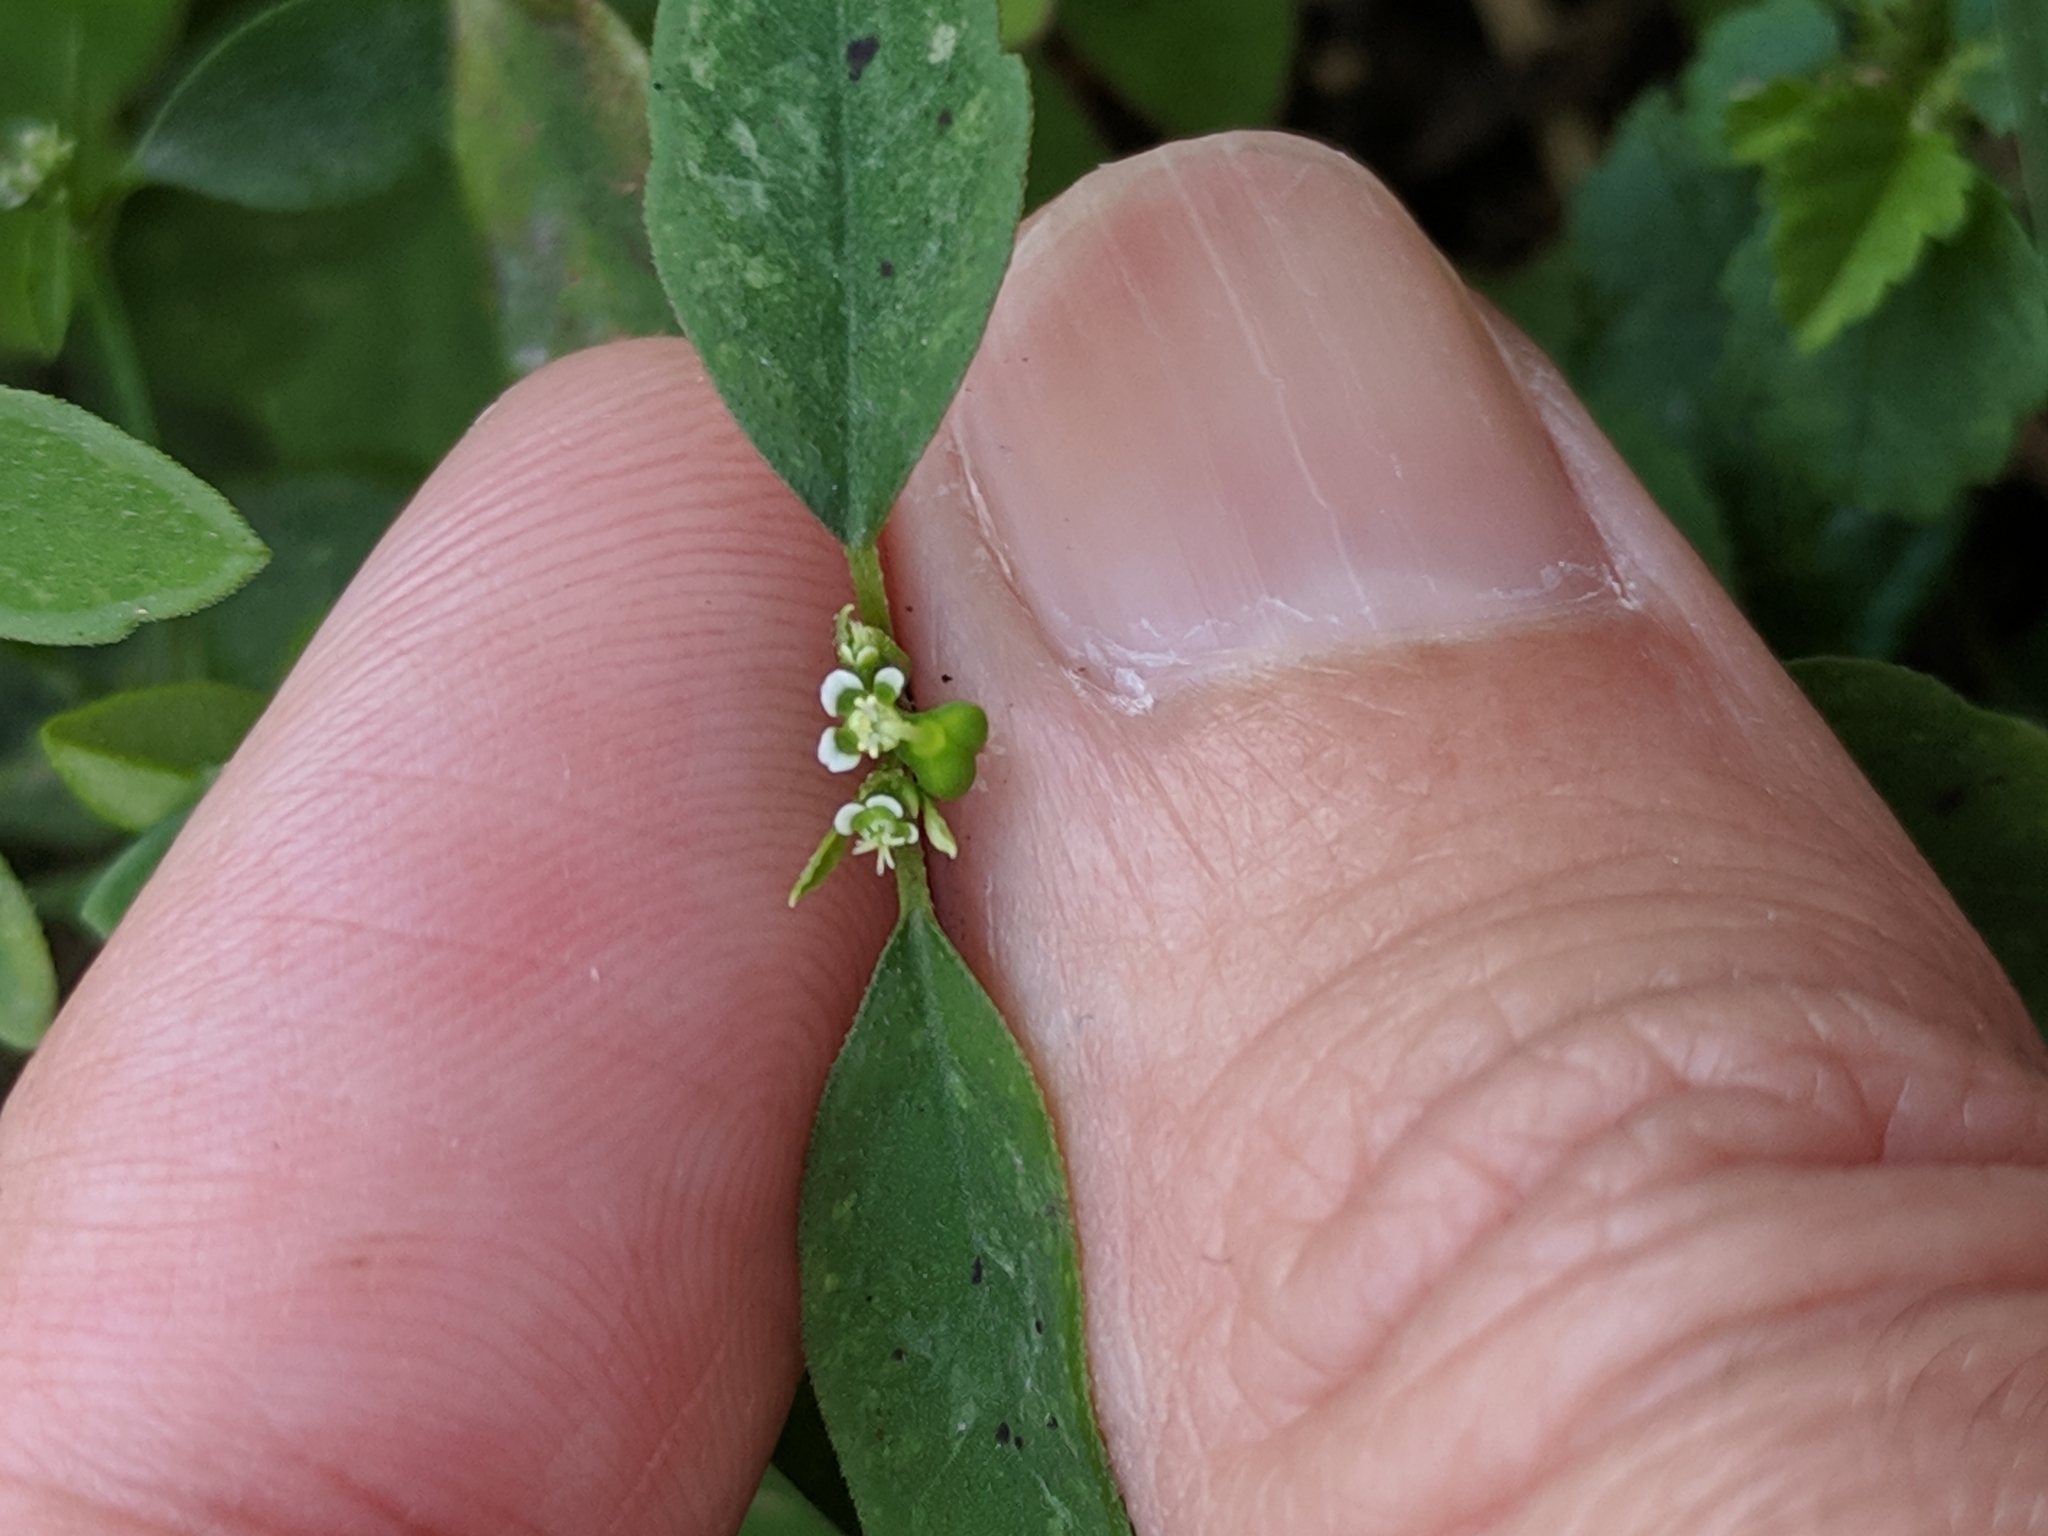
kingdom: Plantae
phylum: Tracheophyta
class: Magnoliopsida
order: Malpighiales
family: Euphorbiaceae
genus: Euphorbia
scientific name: Euphorbia graminea
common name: Grassleaf spurge
